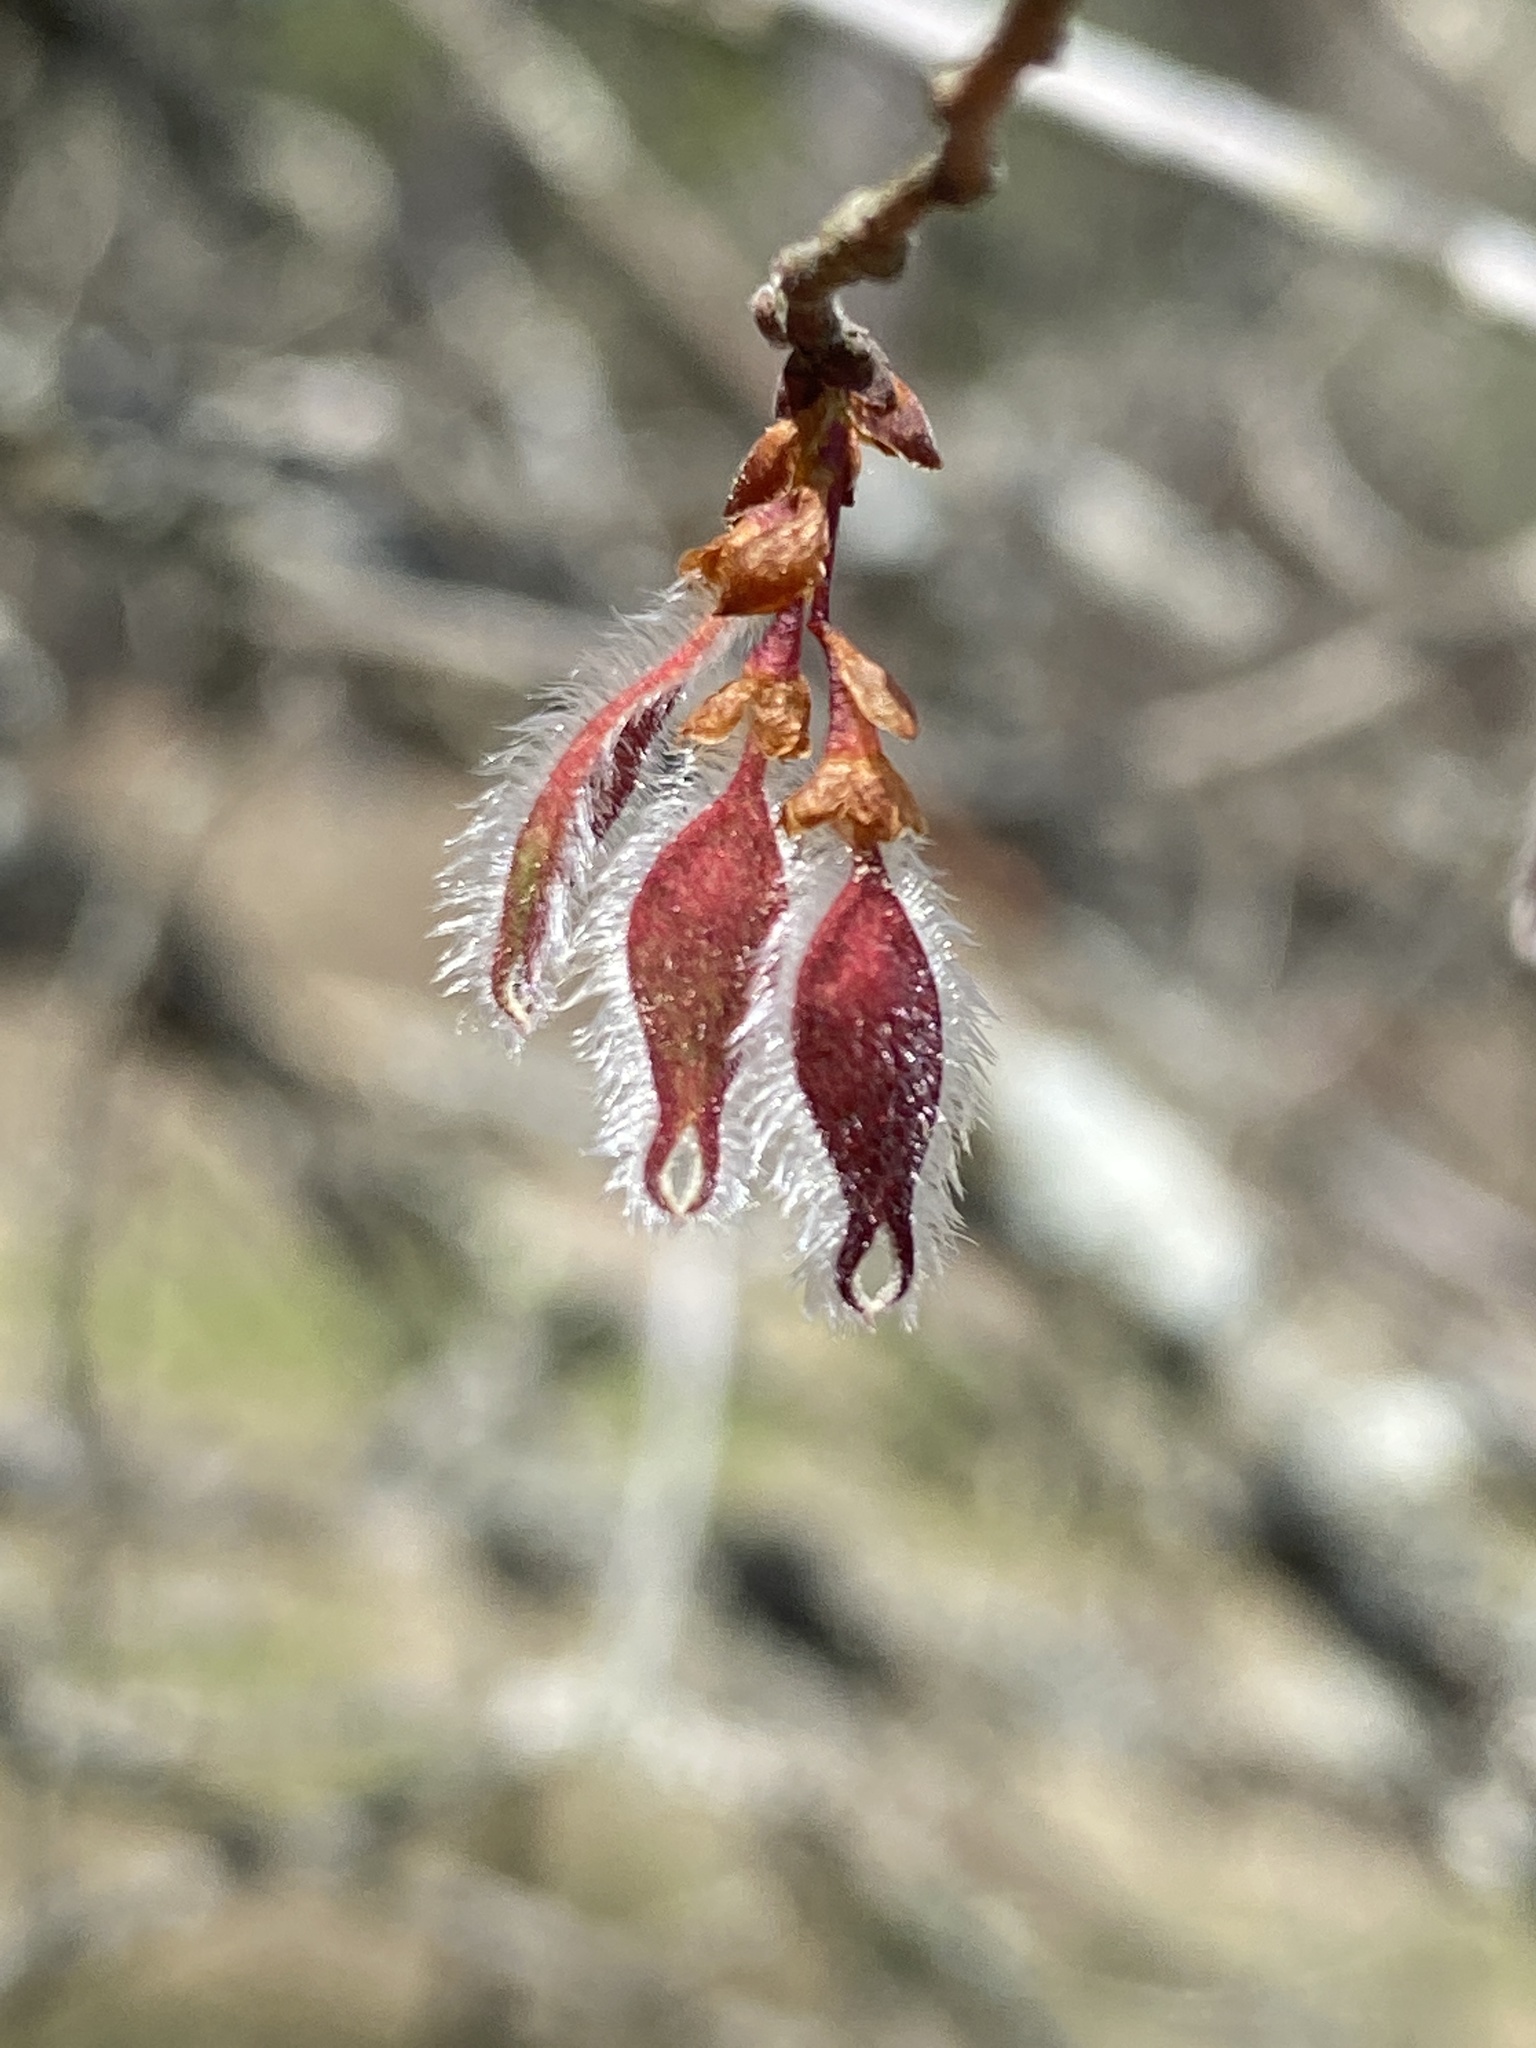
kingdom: Plantae
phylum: Tracheophyta
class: Magnoliopsida
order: Rosales
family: Ulmaceae
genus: Ulmus
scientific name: Ulmus alata
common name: Winged elm
